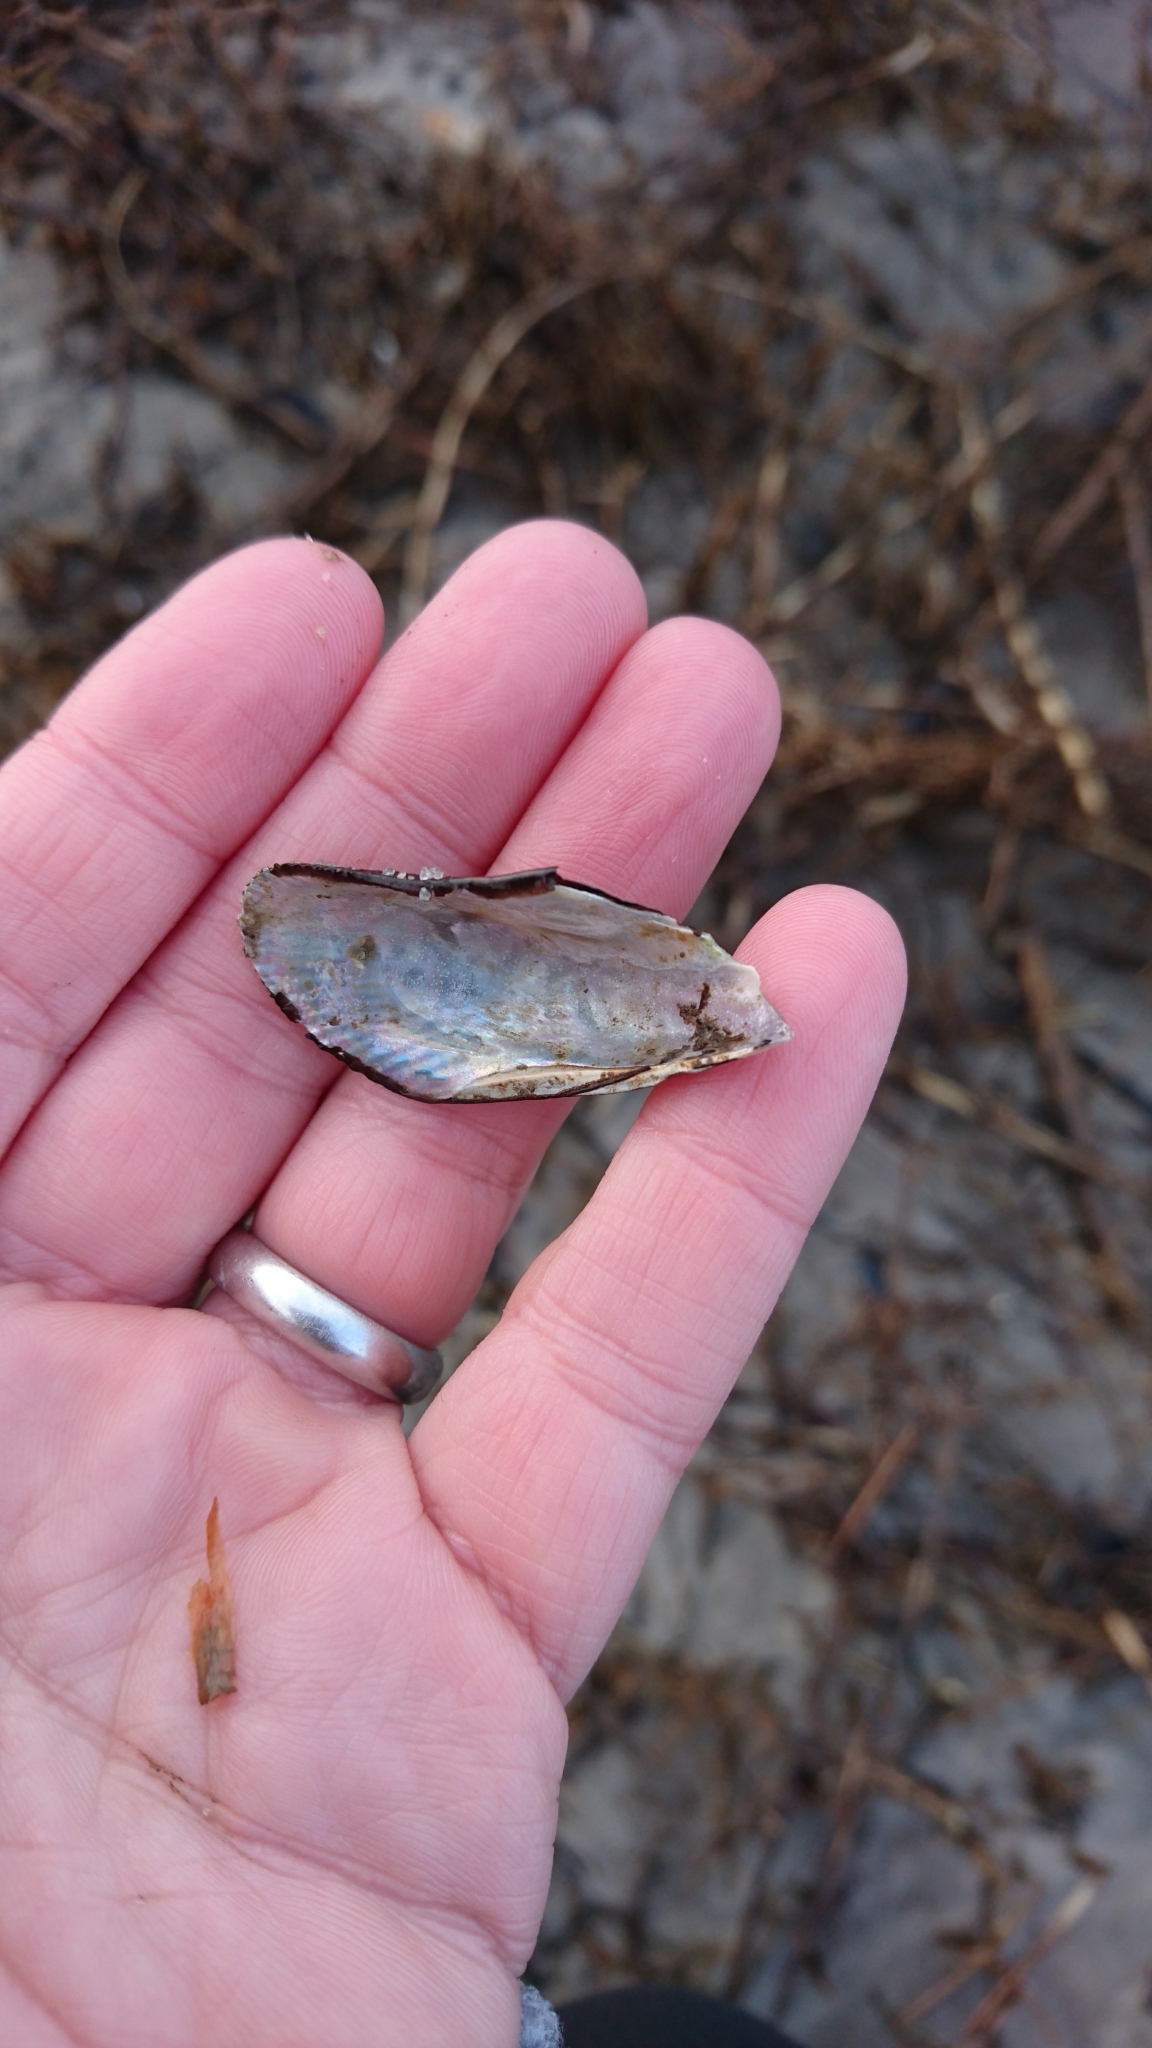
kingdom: Animalia
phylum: Mollusca
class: Bivalvia
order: Mytilida
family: Mytilidae
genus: Geukensia
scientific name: Geukensia granosissima
